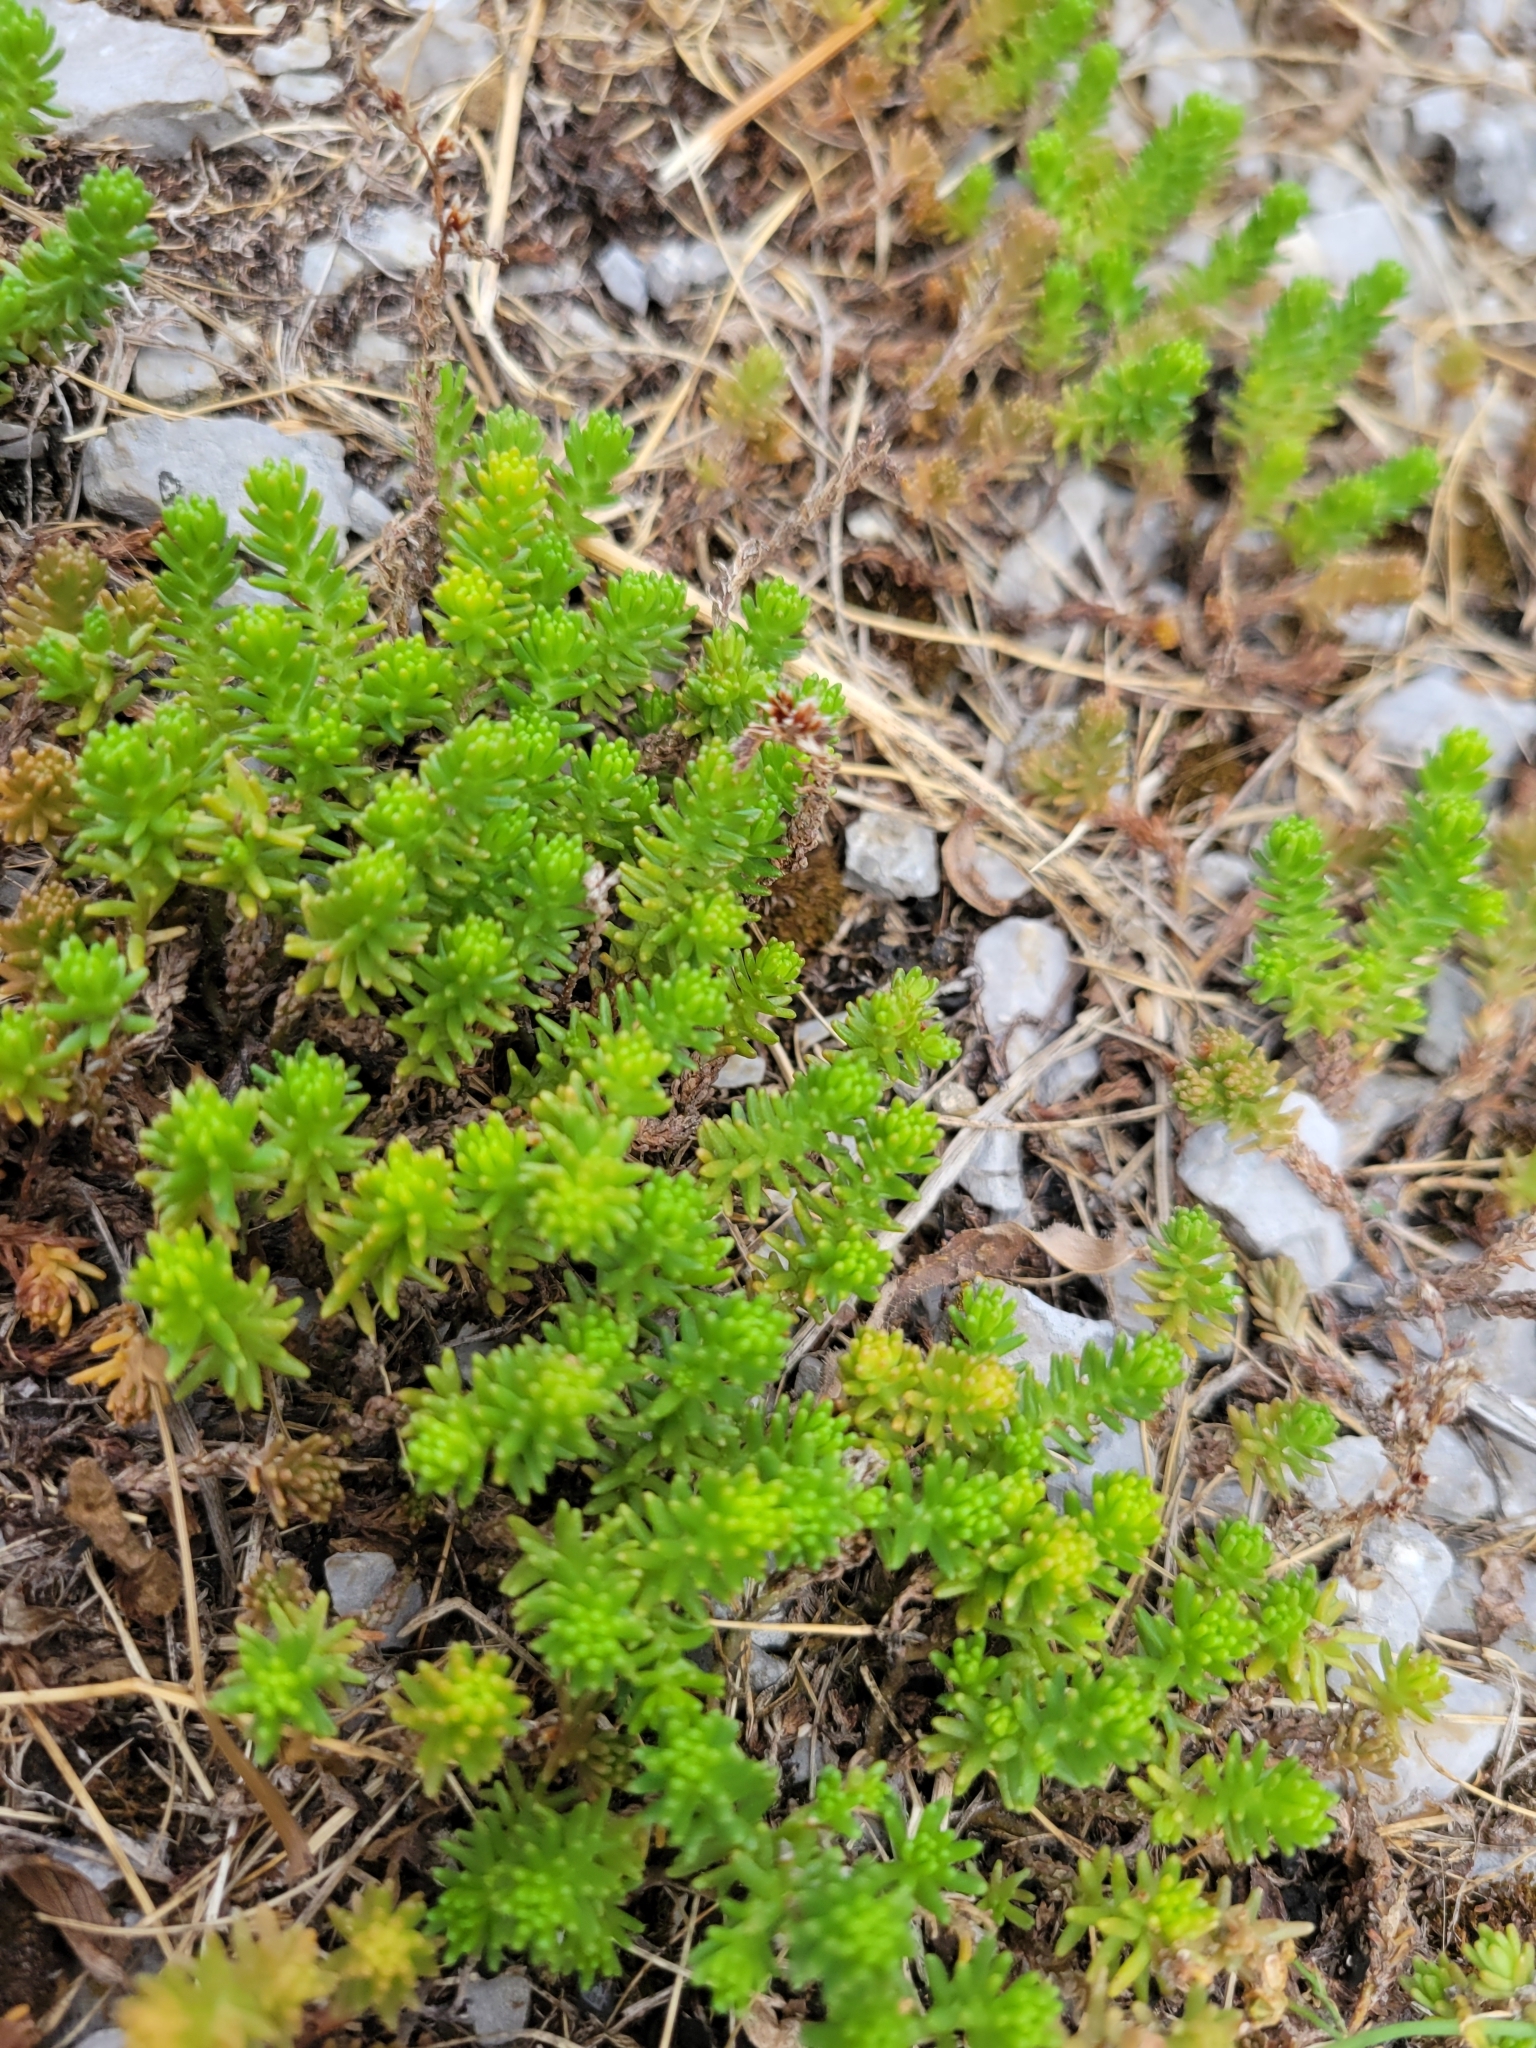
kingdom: Plantae
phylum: Tracheophyta
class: Magnoliopsida
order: Saxifragales
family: Crassulaceae
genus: Sedum
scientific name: Sedum sexangulare
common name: Tasteless stonecrop
